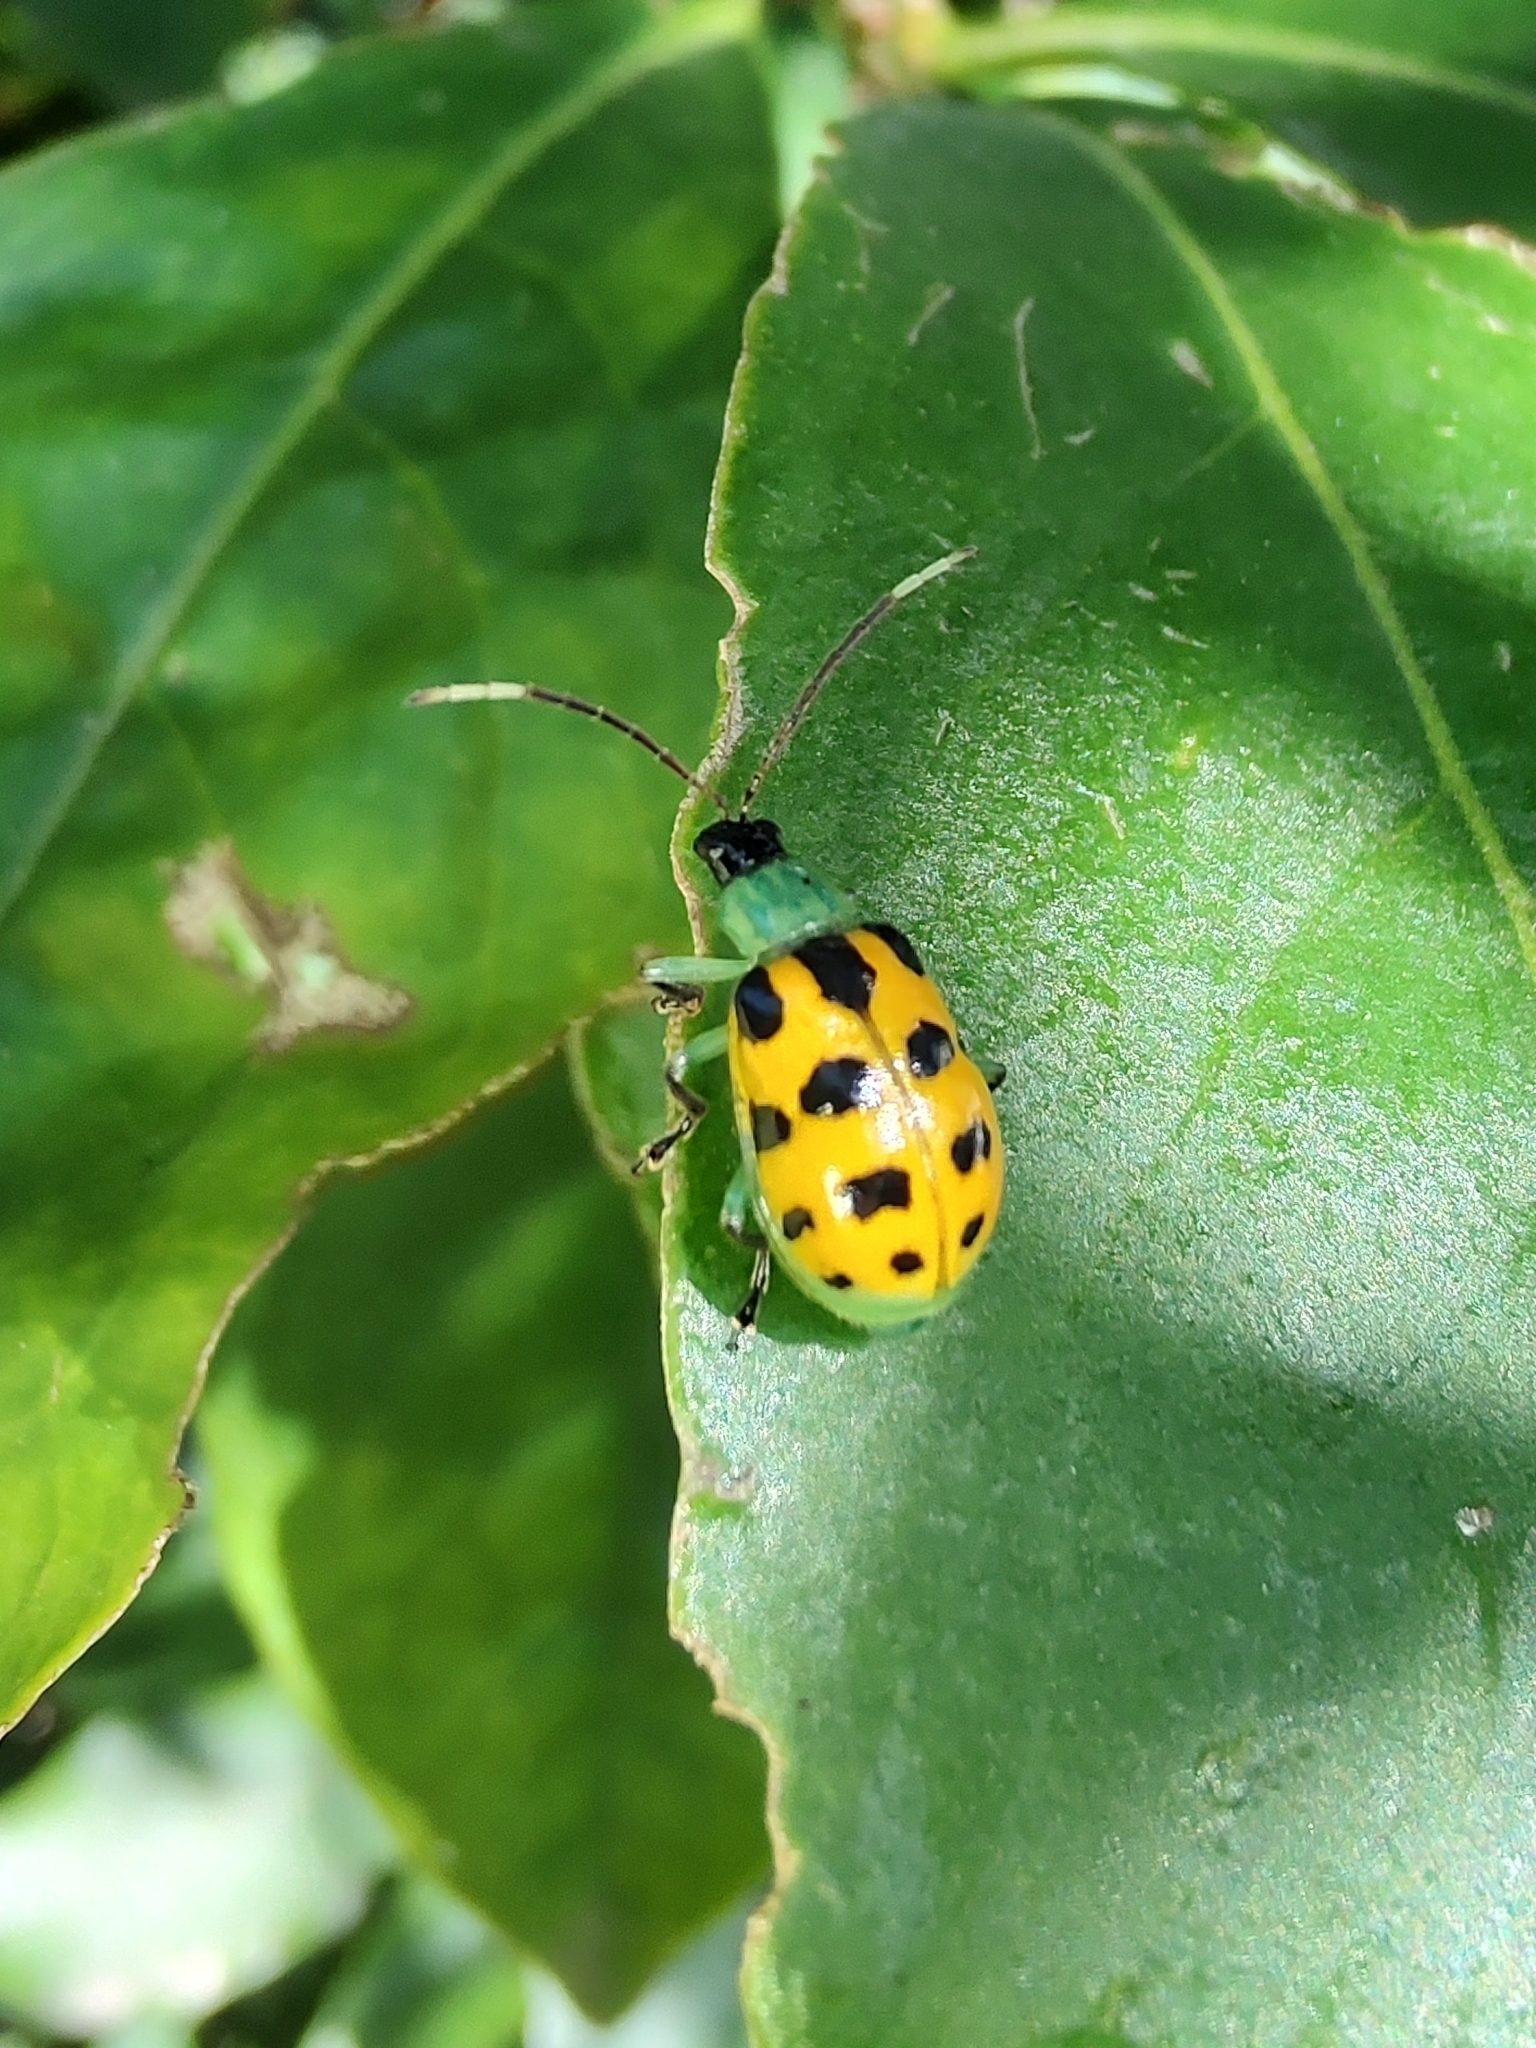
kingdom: Animalia
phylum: Arthropoda
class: Insecta
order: Coleoptera
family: Chrysomelidae
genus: Diabrotica
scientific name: Diabrotica limitata
